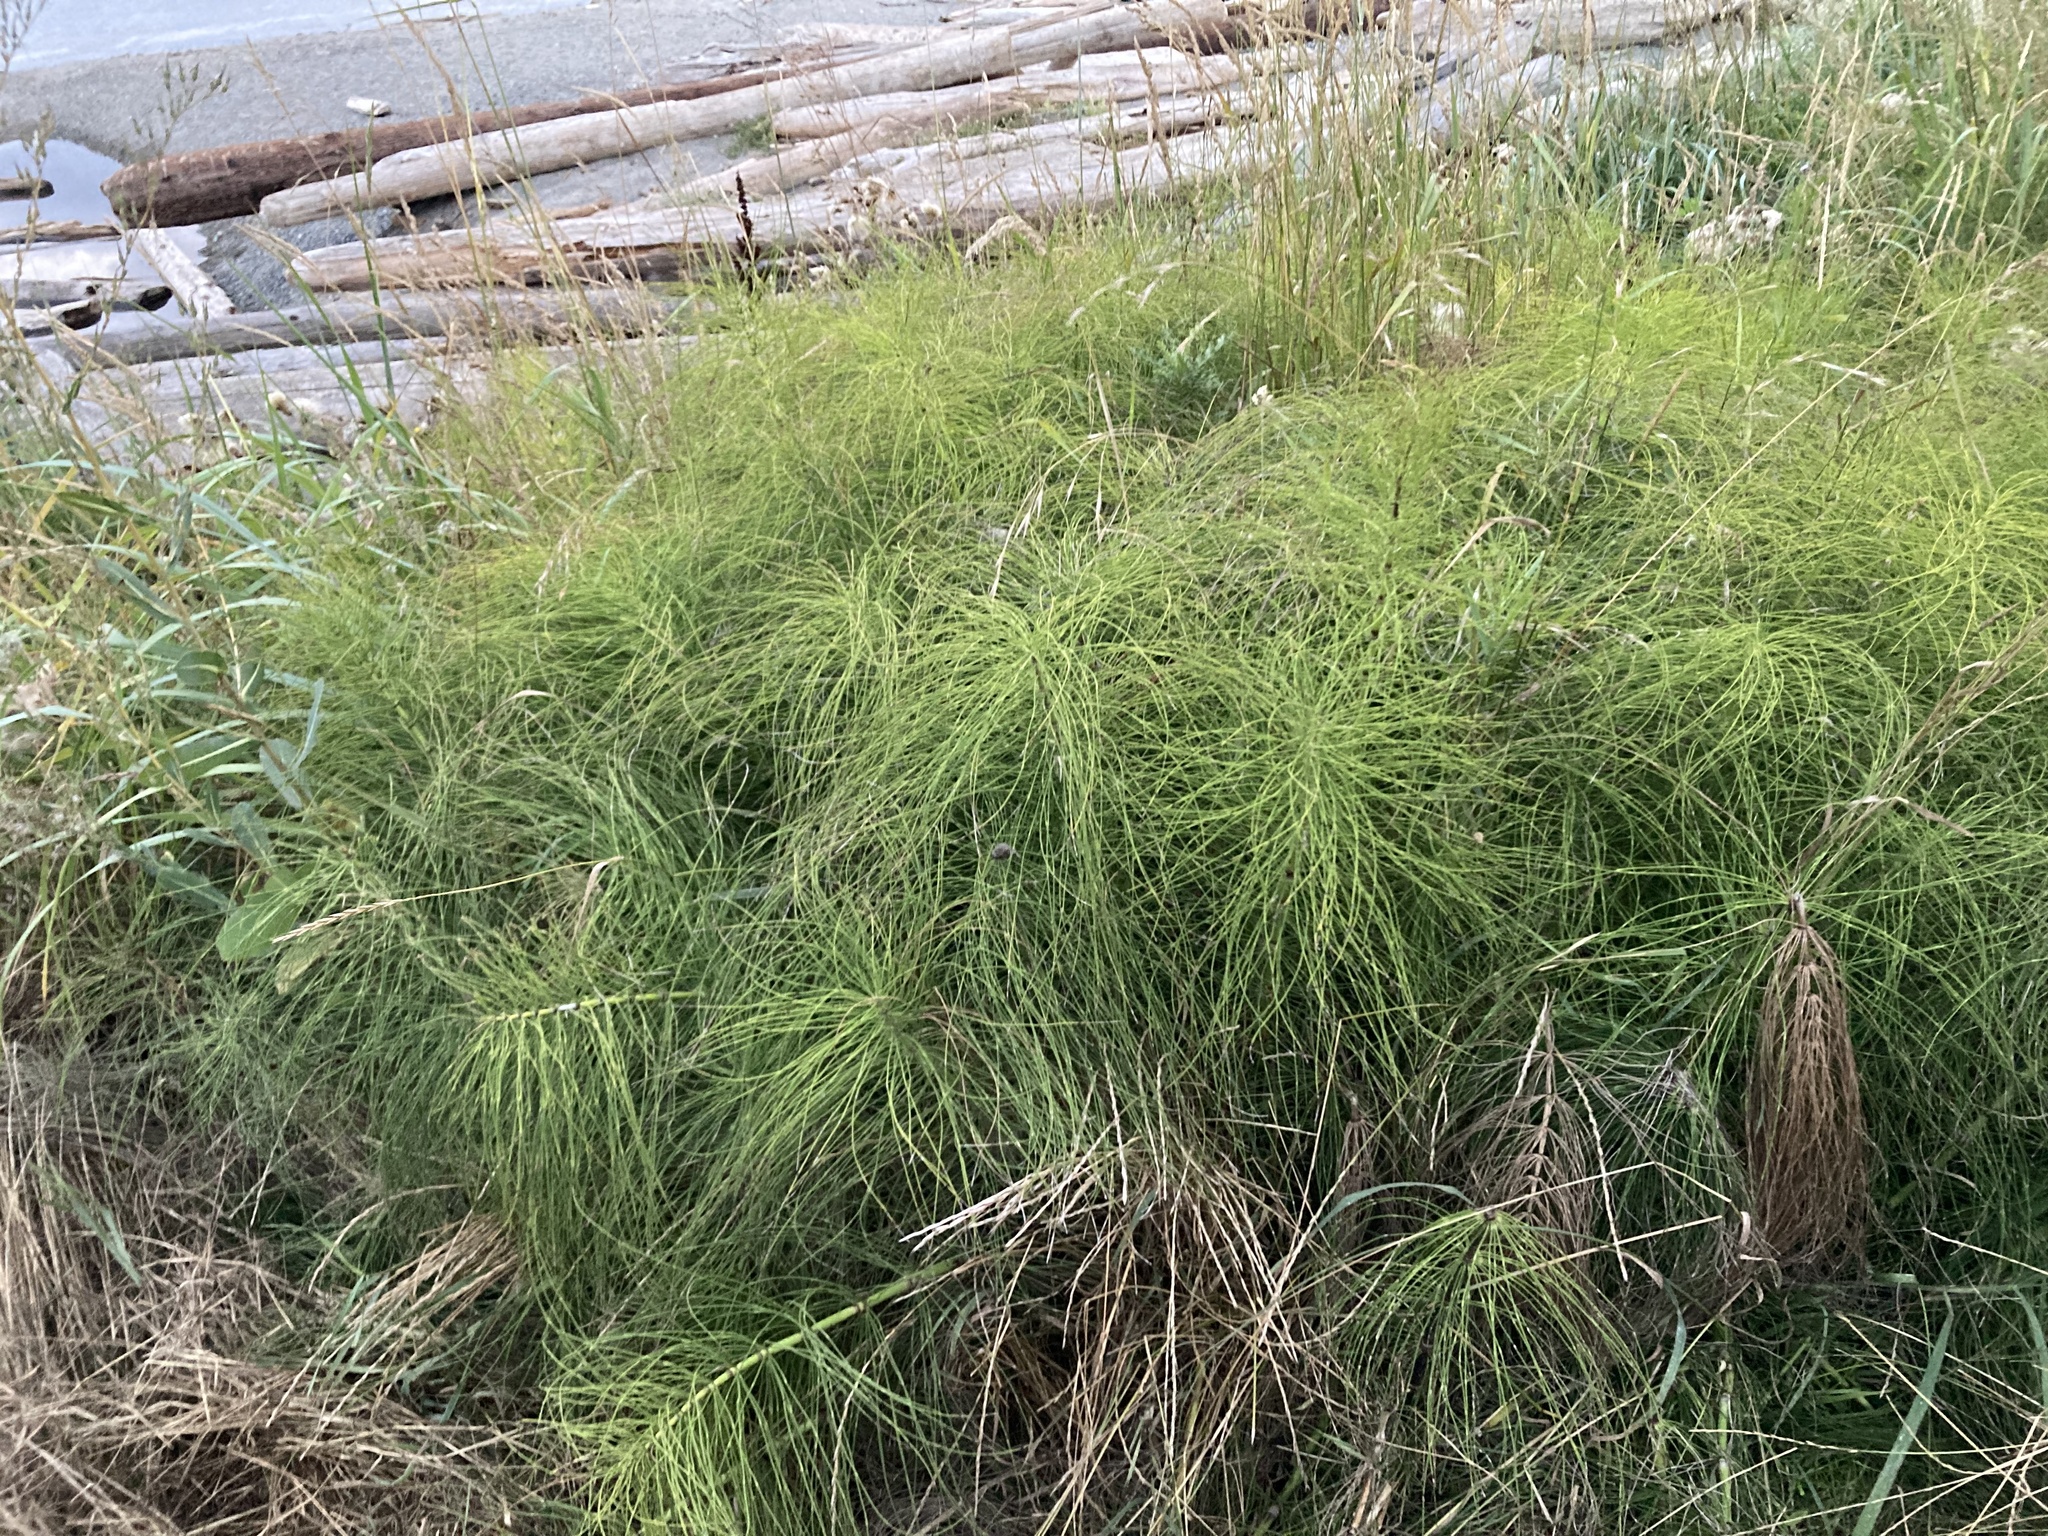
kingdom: Plantae
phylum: Tracheophyta
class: Polypodiopsida
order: Equisetales
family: Equisetaceae
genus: Equisetum
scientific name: Equisetum telmateia
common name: Great horsetail
